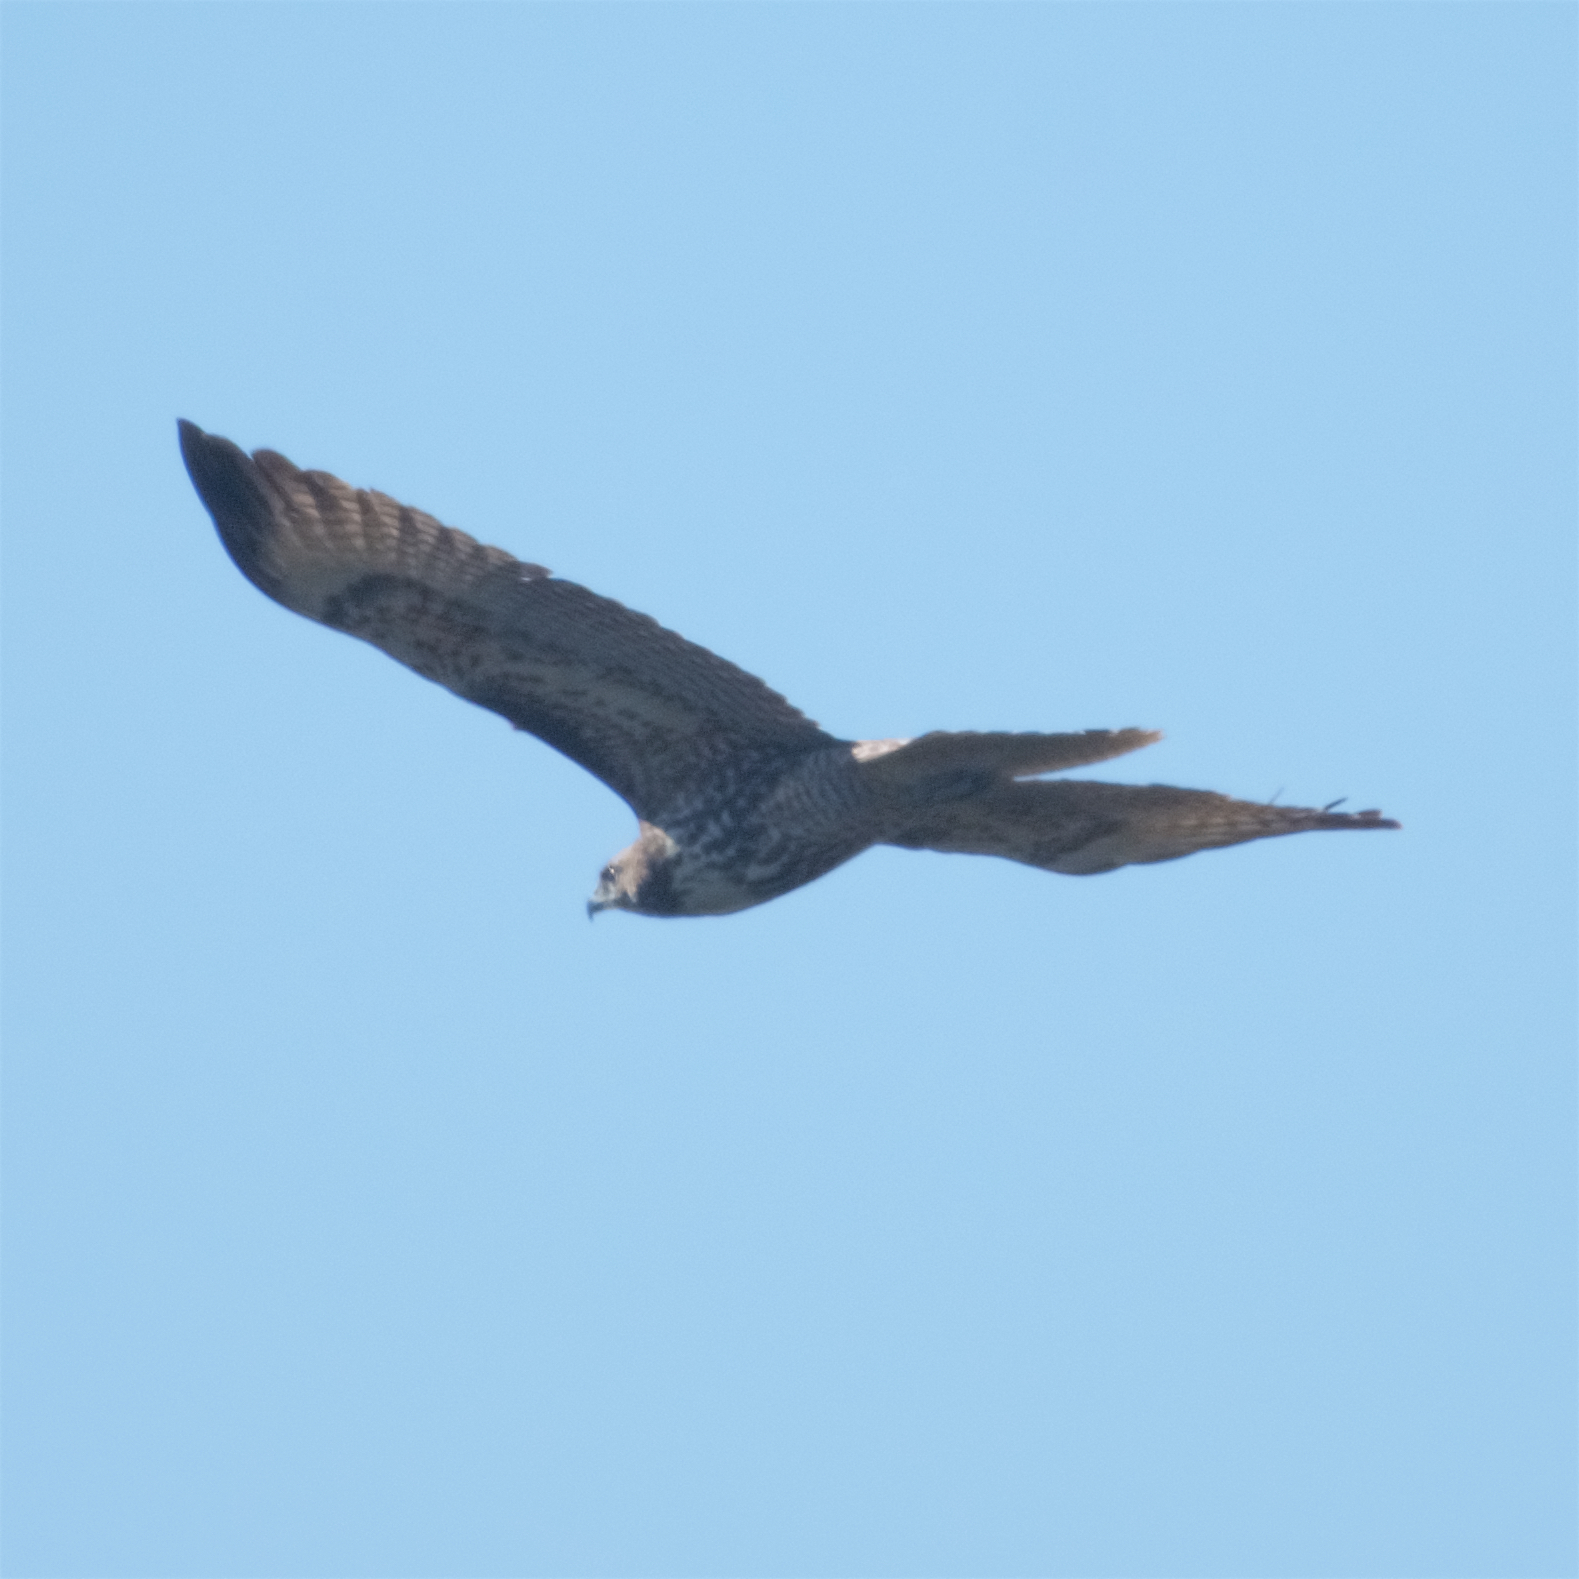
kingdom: Animalia
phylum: Chordata
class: Aves
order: Accipitriformes
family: Accipitridae
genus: Buteo
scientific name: Buteo jamaicensis
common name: Red-tailed hawk
